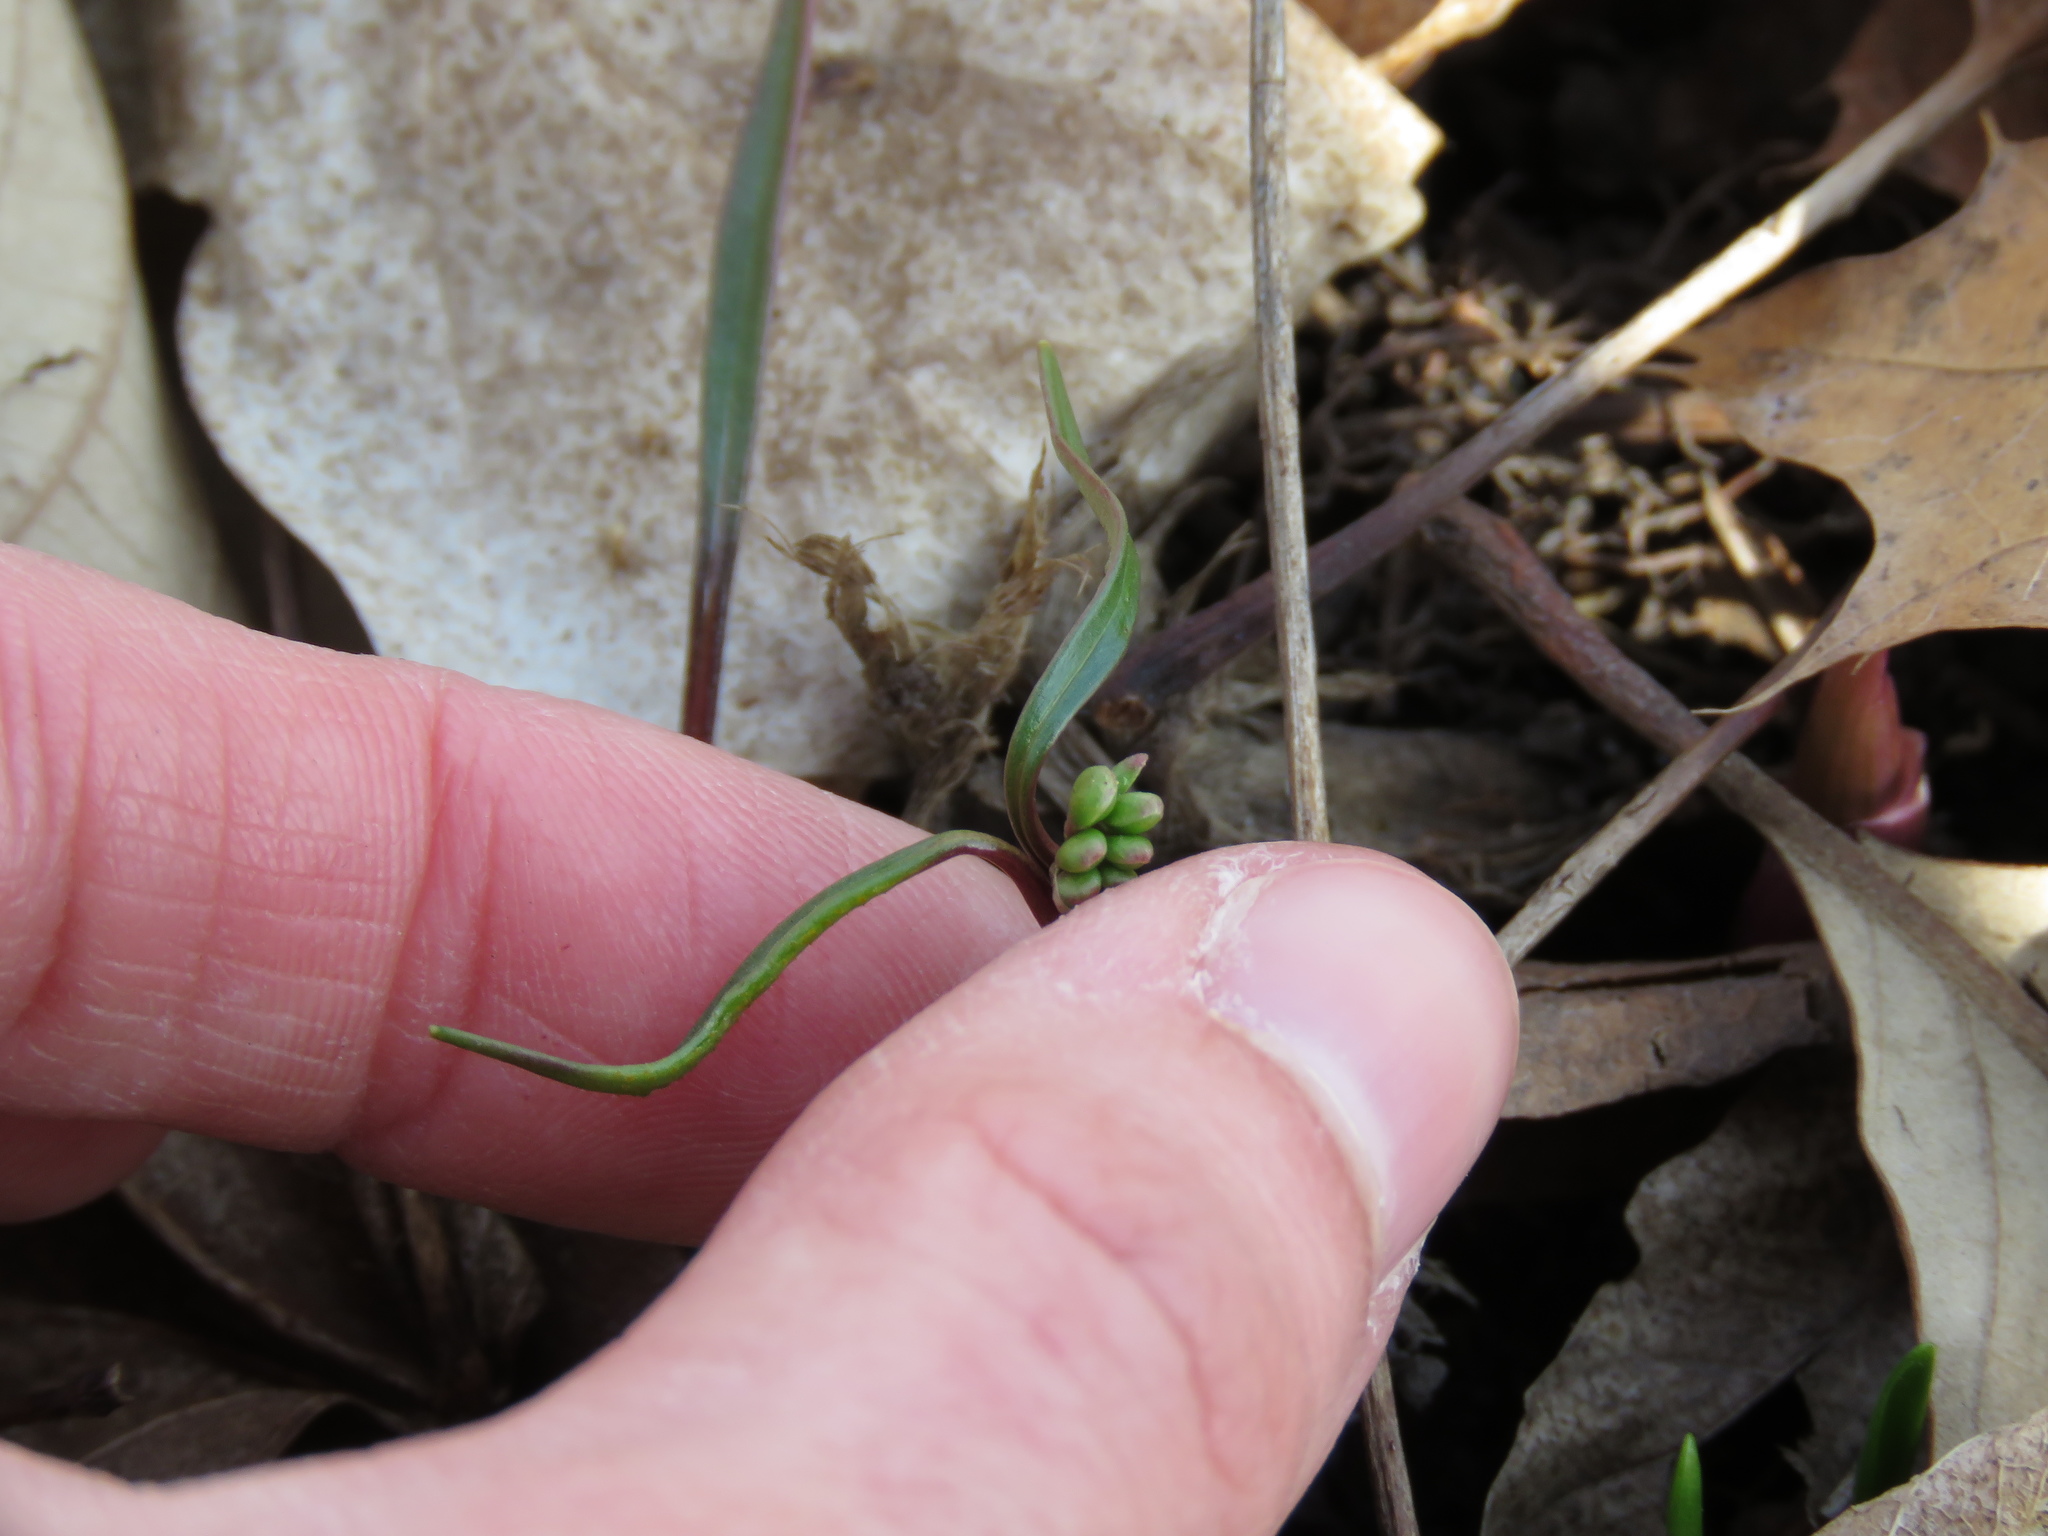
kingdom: Plantae
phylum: Tracheophyta
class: Magnoliopsida
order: Caryophyllales
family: Montiaceae
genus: Claytonia
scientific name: Claytonia virginica
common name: Virginia springbeauty
